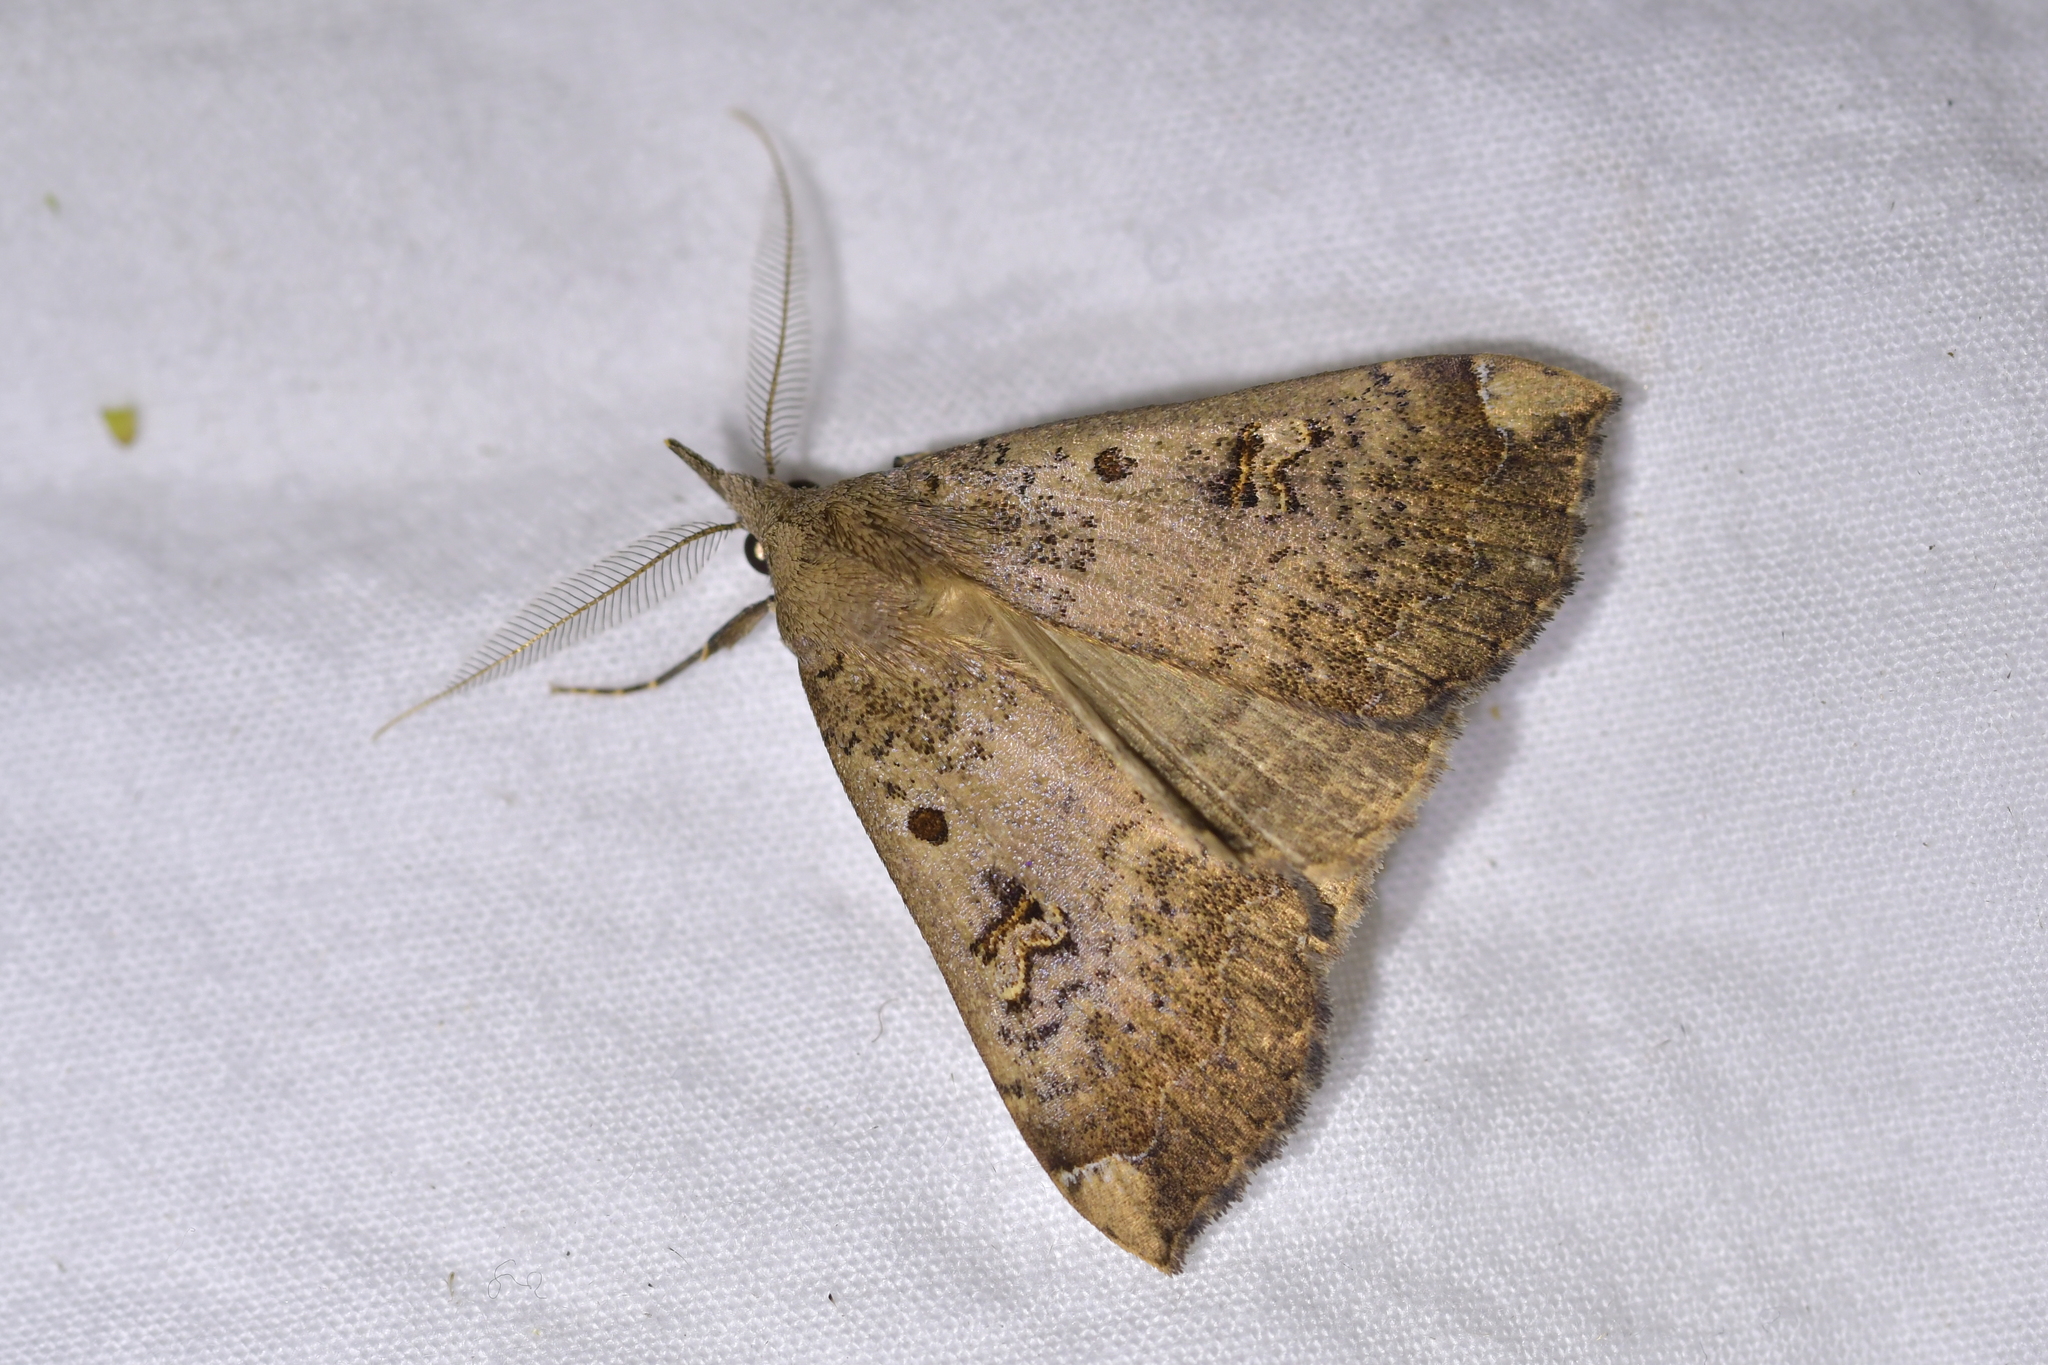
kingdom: Animalia
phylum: Arthropoda
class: Insecta
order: Lepidoptera
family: Erebidae
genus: Rhapsa
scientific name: Rhapsa scotosialis
